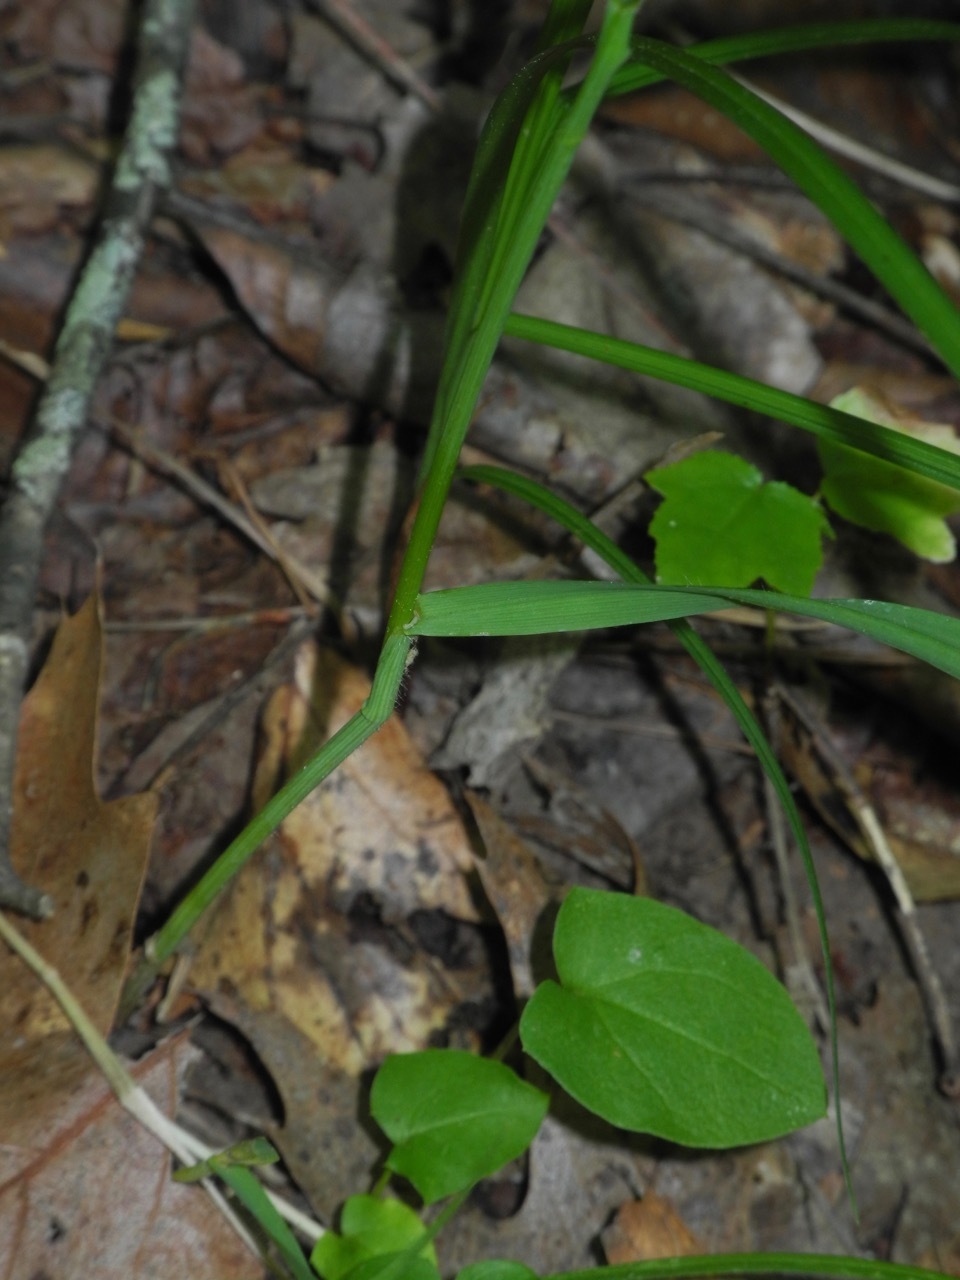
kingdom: Plantae
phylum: Tracheophyta
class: Liliopsida
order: Poales
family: Poaceae
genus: Bromus
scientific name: Bromus pubescens
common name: Hairy wood brome grass
